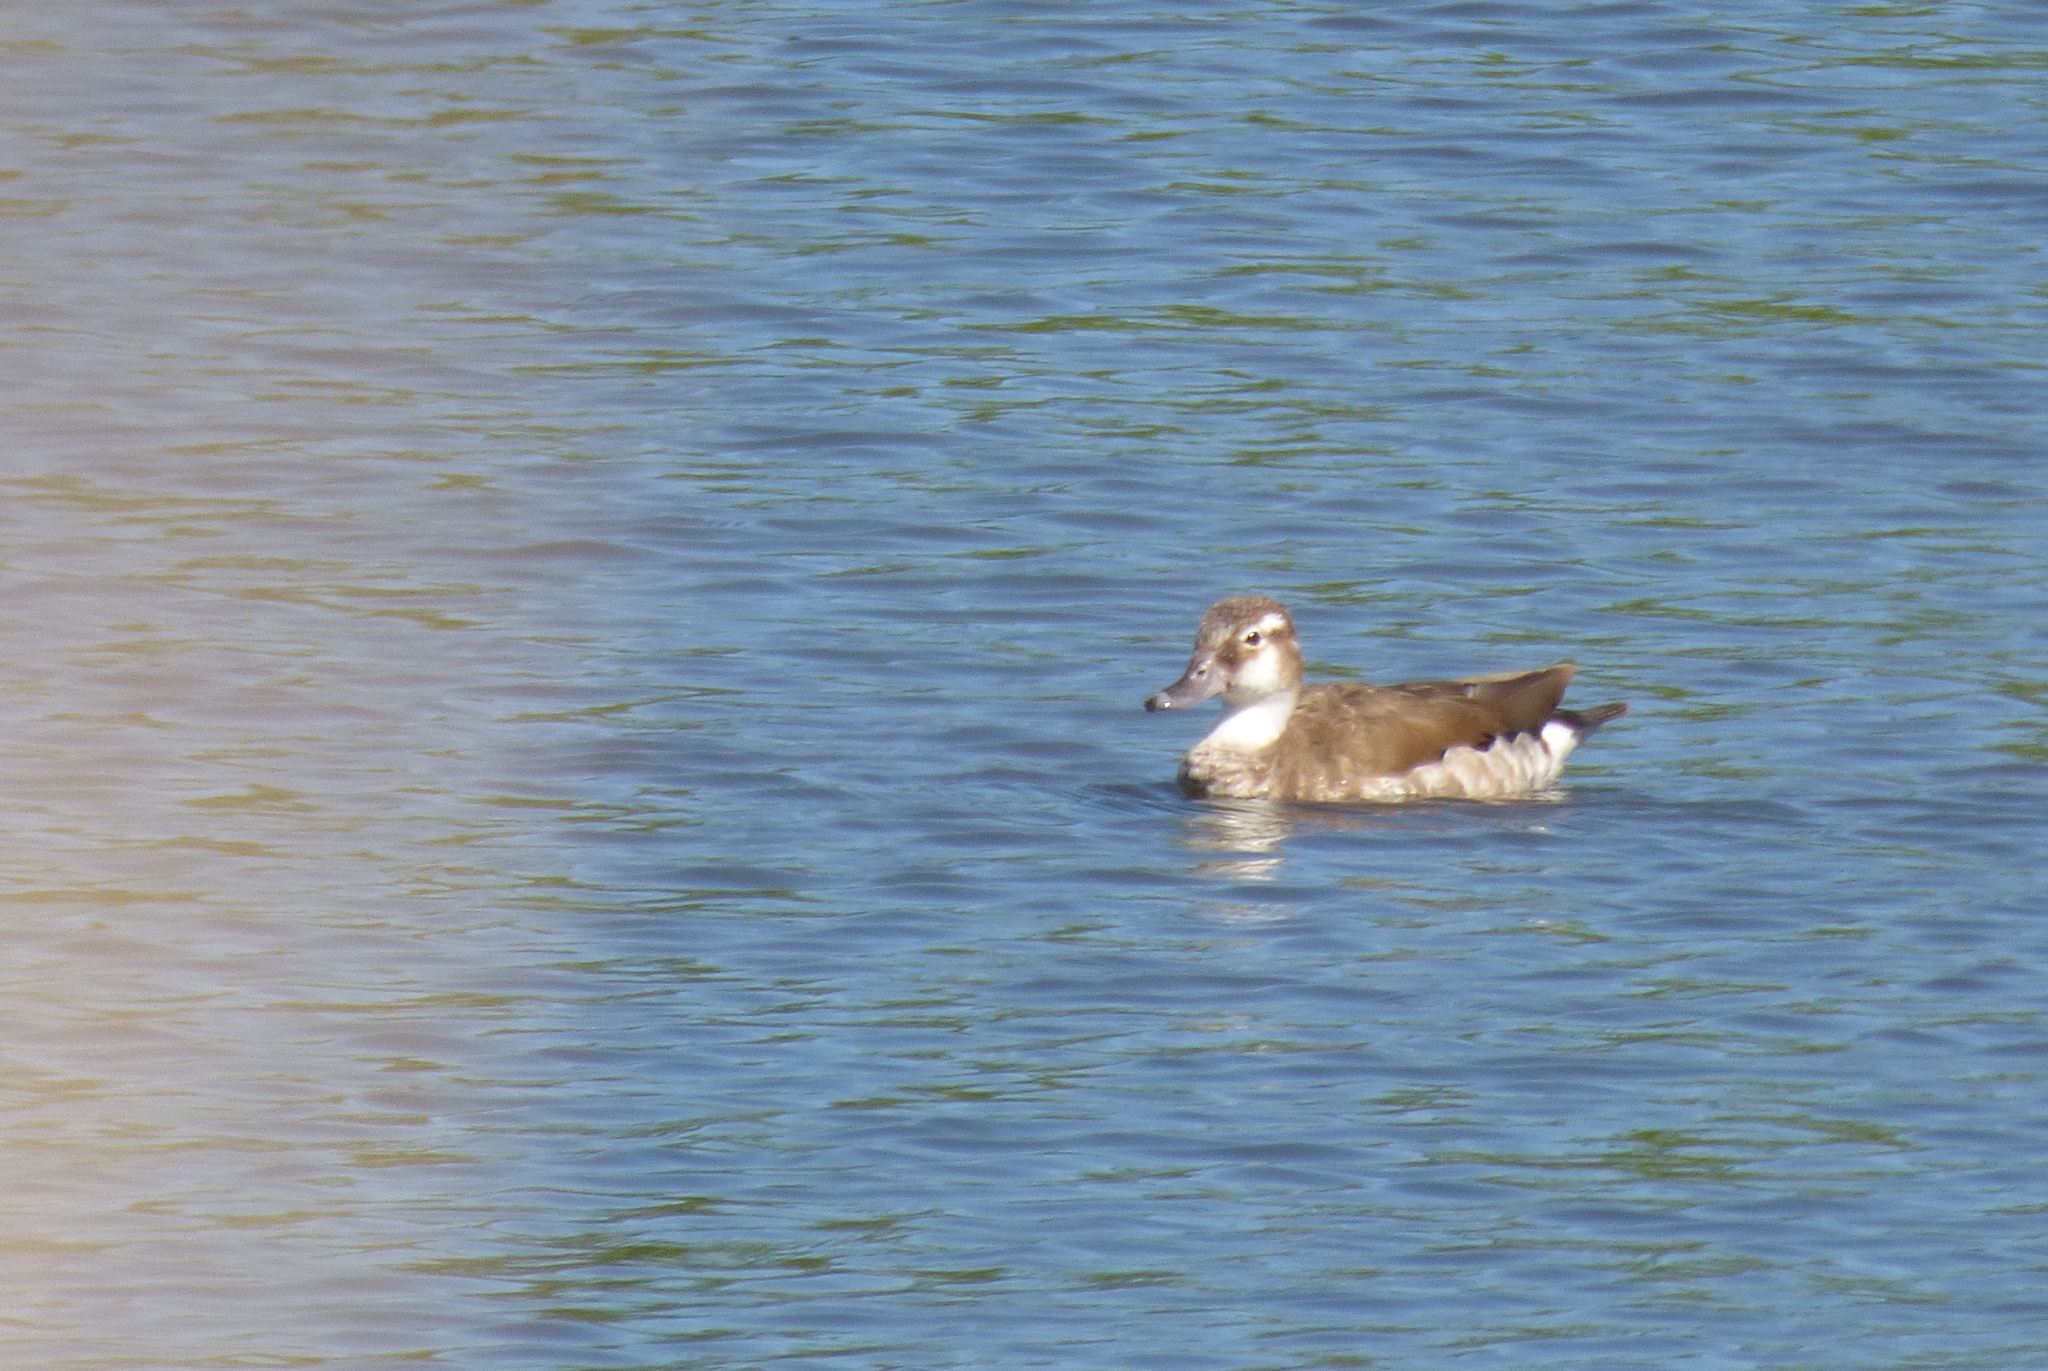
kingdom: Animalia
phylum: Chordata
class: Aves
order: Anseriformes
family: Anatidae
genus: Callonetta
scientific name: Callonetta leucophrys
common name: Ringed teal
